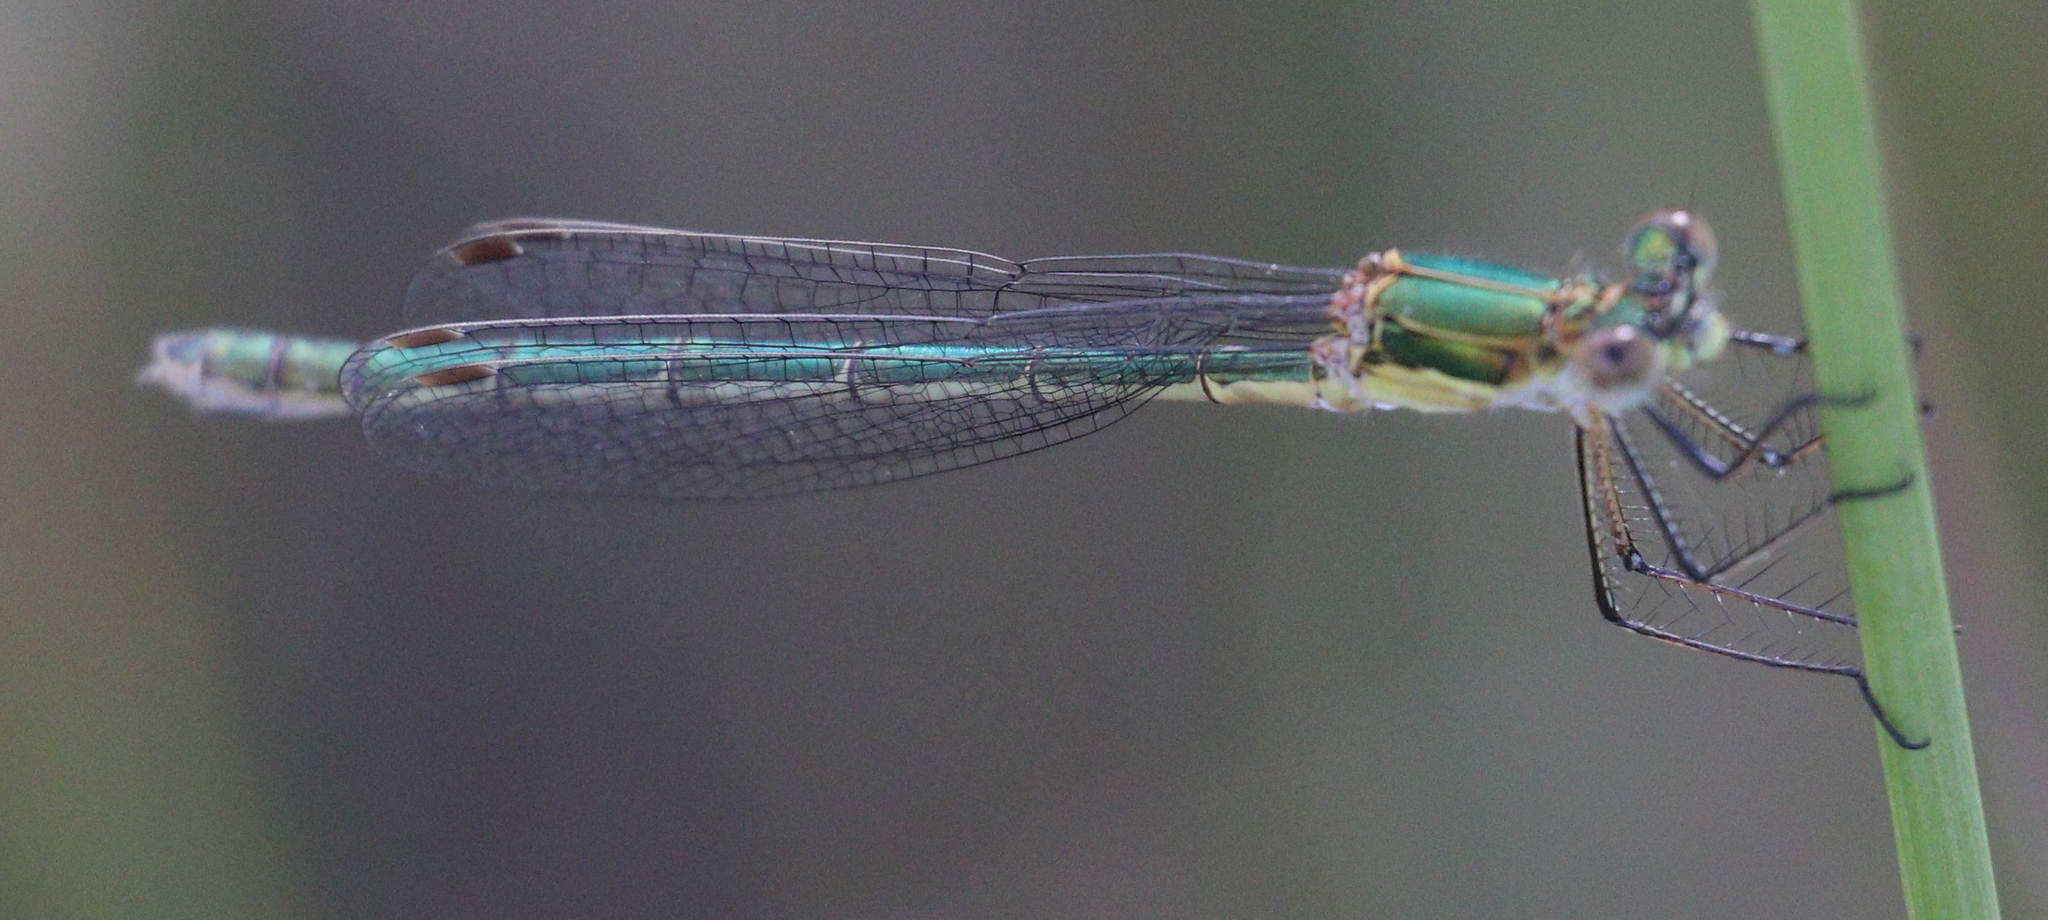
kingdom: Animalia
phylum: Arthropoda
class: Insecta
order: Odonata
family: Lestidae
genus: Lestes
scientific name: Lestes sponsa
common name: Common spreadwing
